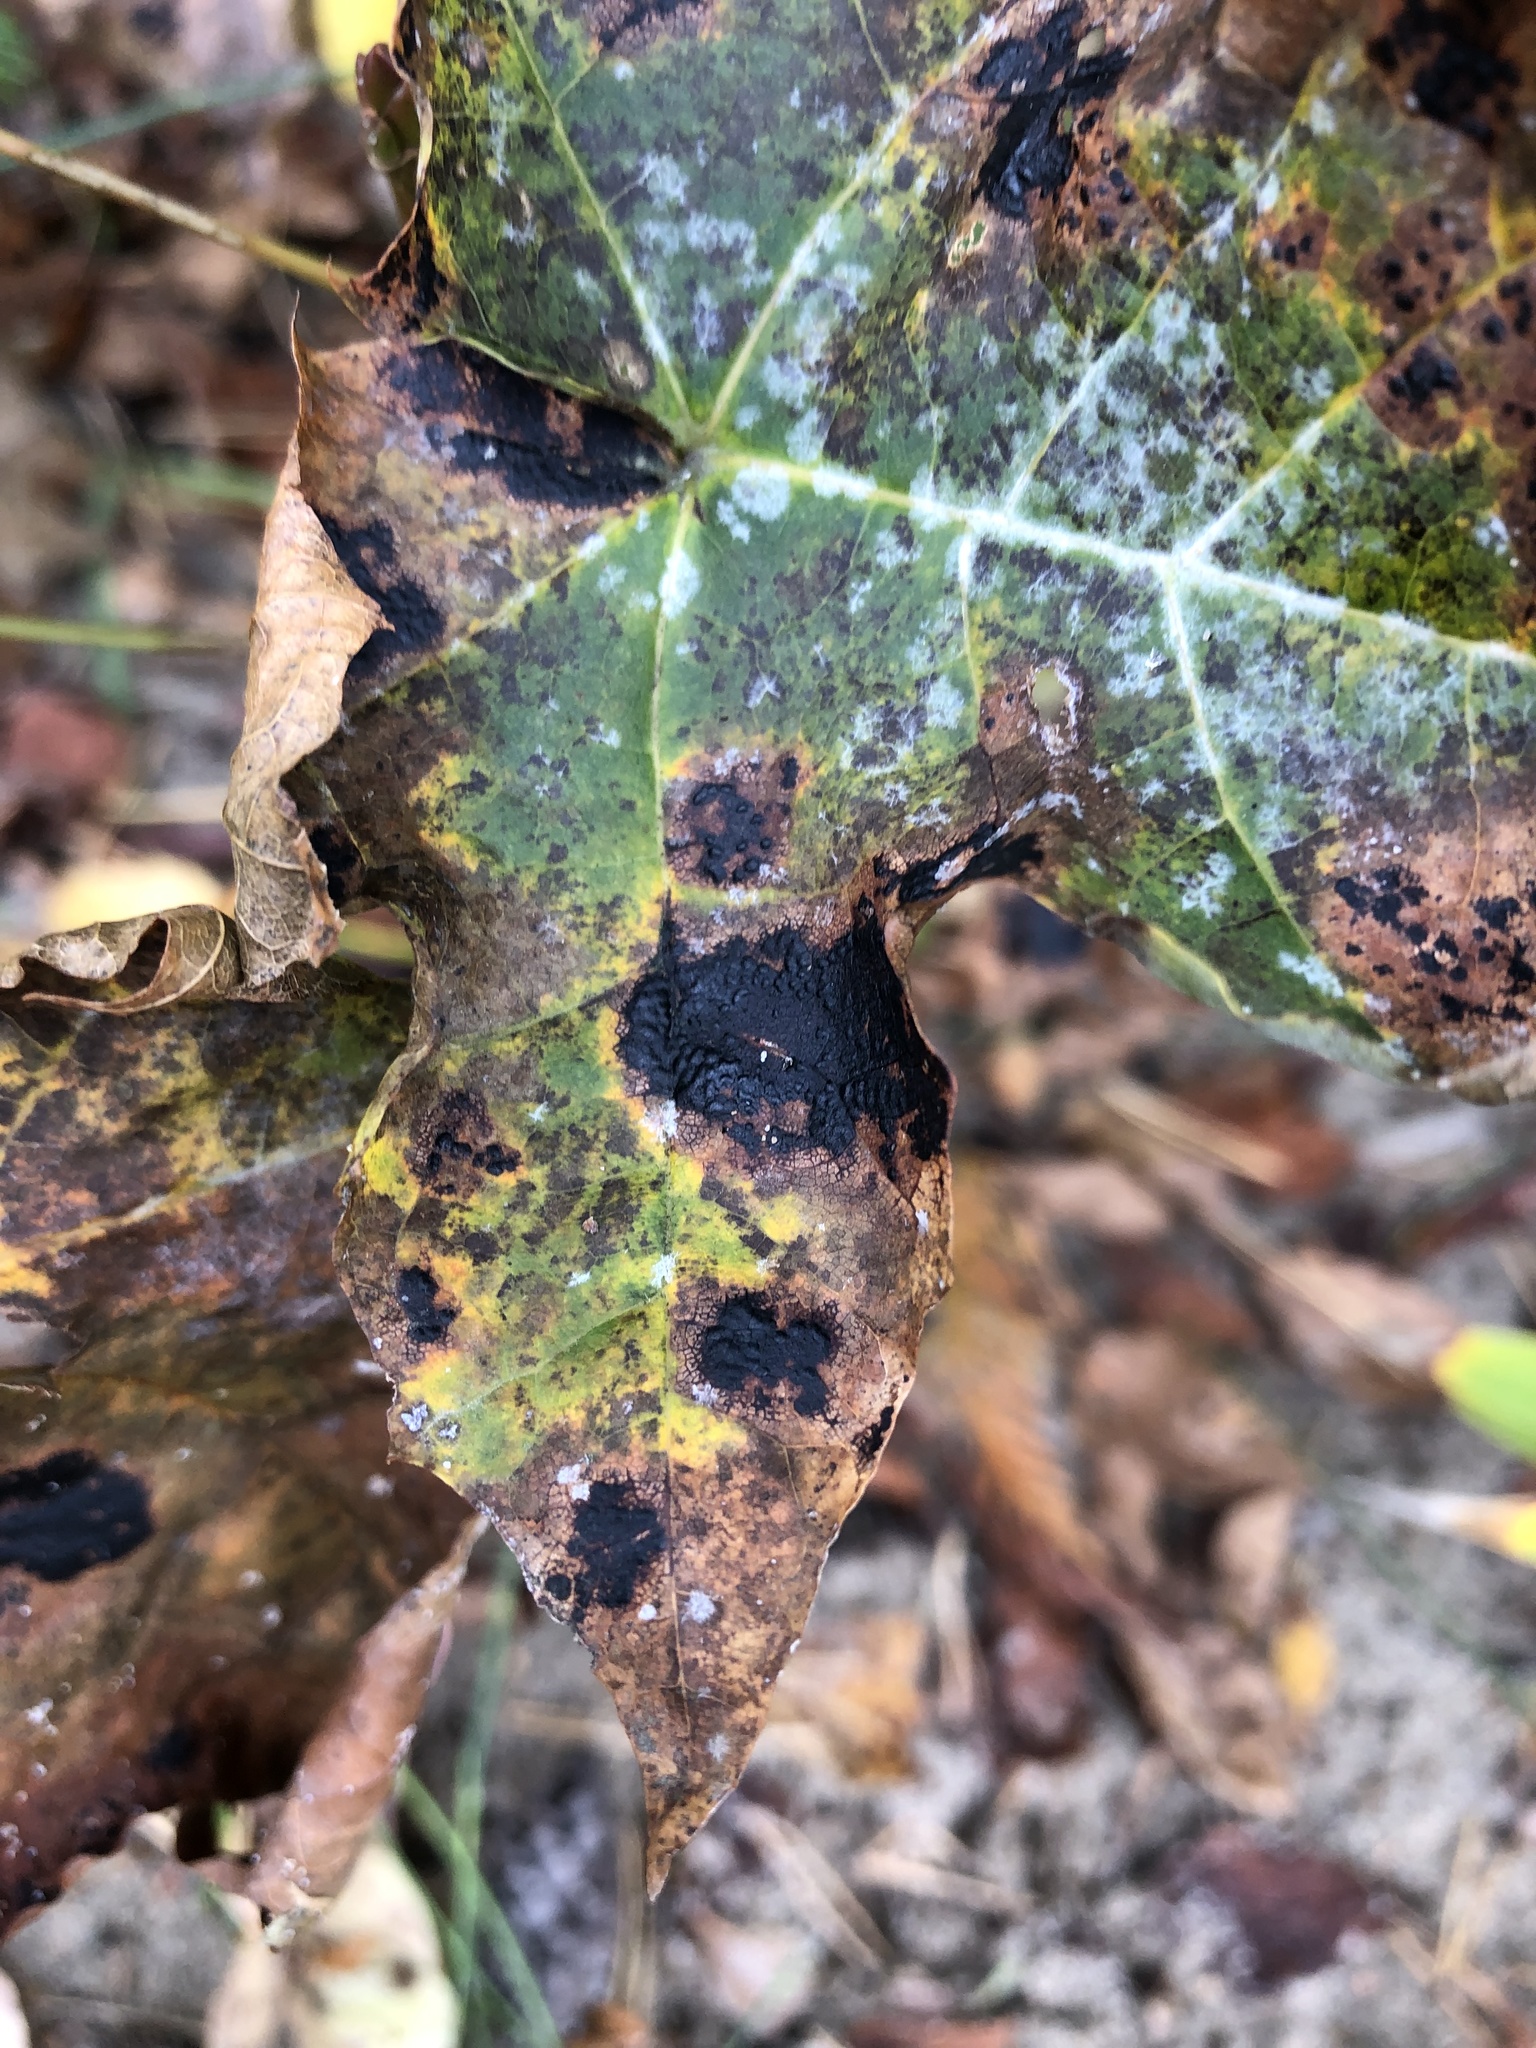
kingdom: Fungi
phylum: Ascomycota
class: Leotiomycetes
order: Rhytismatales
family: Rhytismataceae
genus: Rhytisma
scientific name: Rhytisma acerinum
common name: European tar spot
